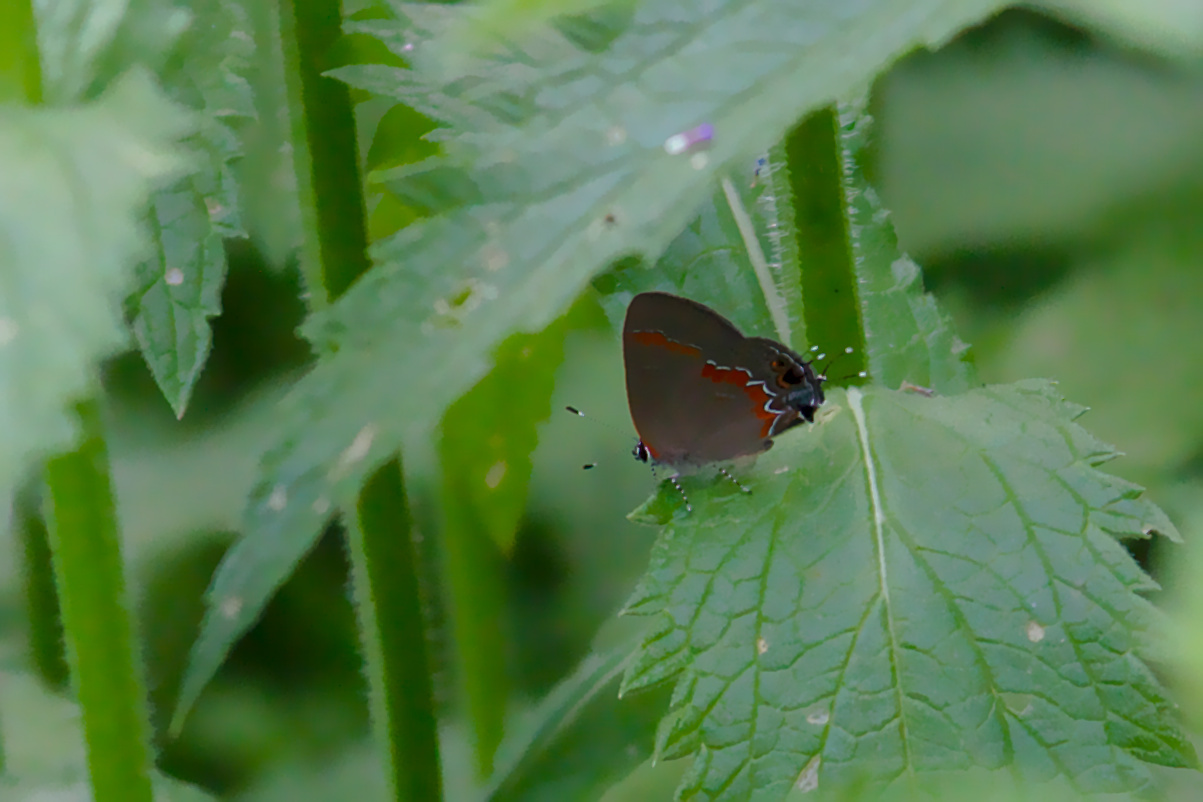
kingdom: Animalia
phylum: Arthropoda
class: Insecta
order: Lepidoptera
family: Lycaenidae
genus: Calycopis
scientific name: Calycopis cecrops
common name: Red-banded hairstreak
